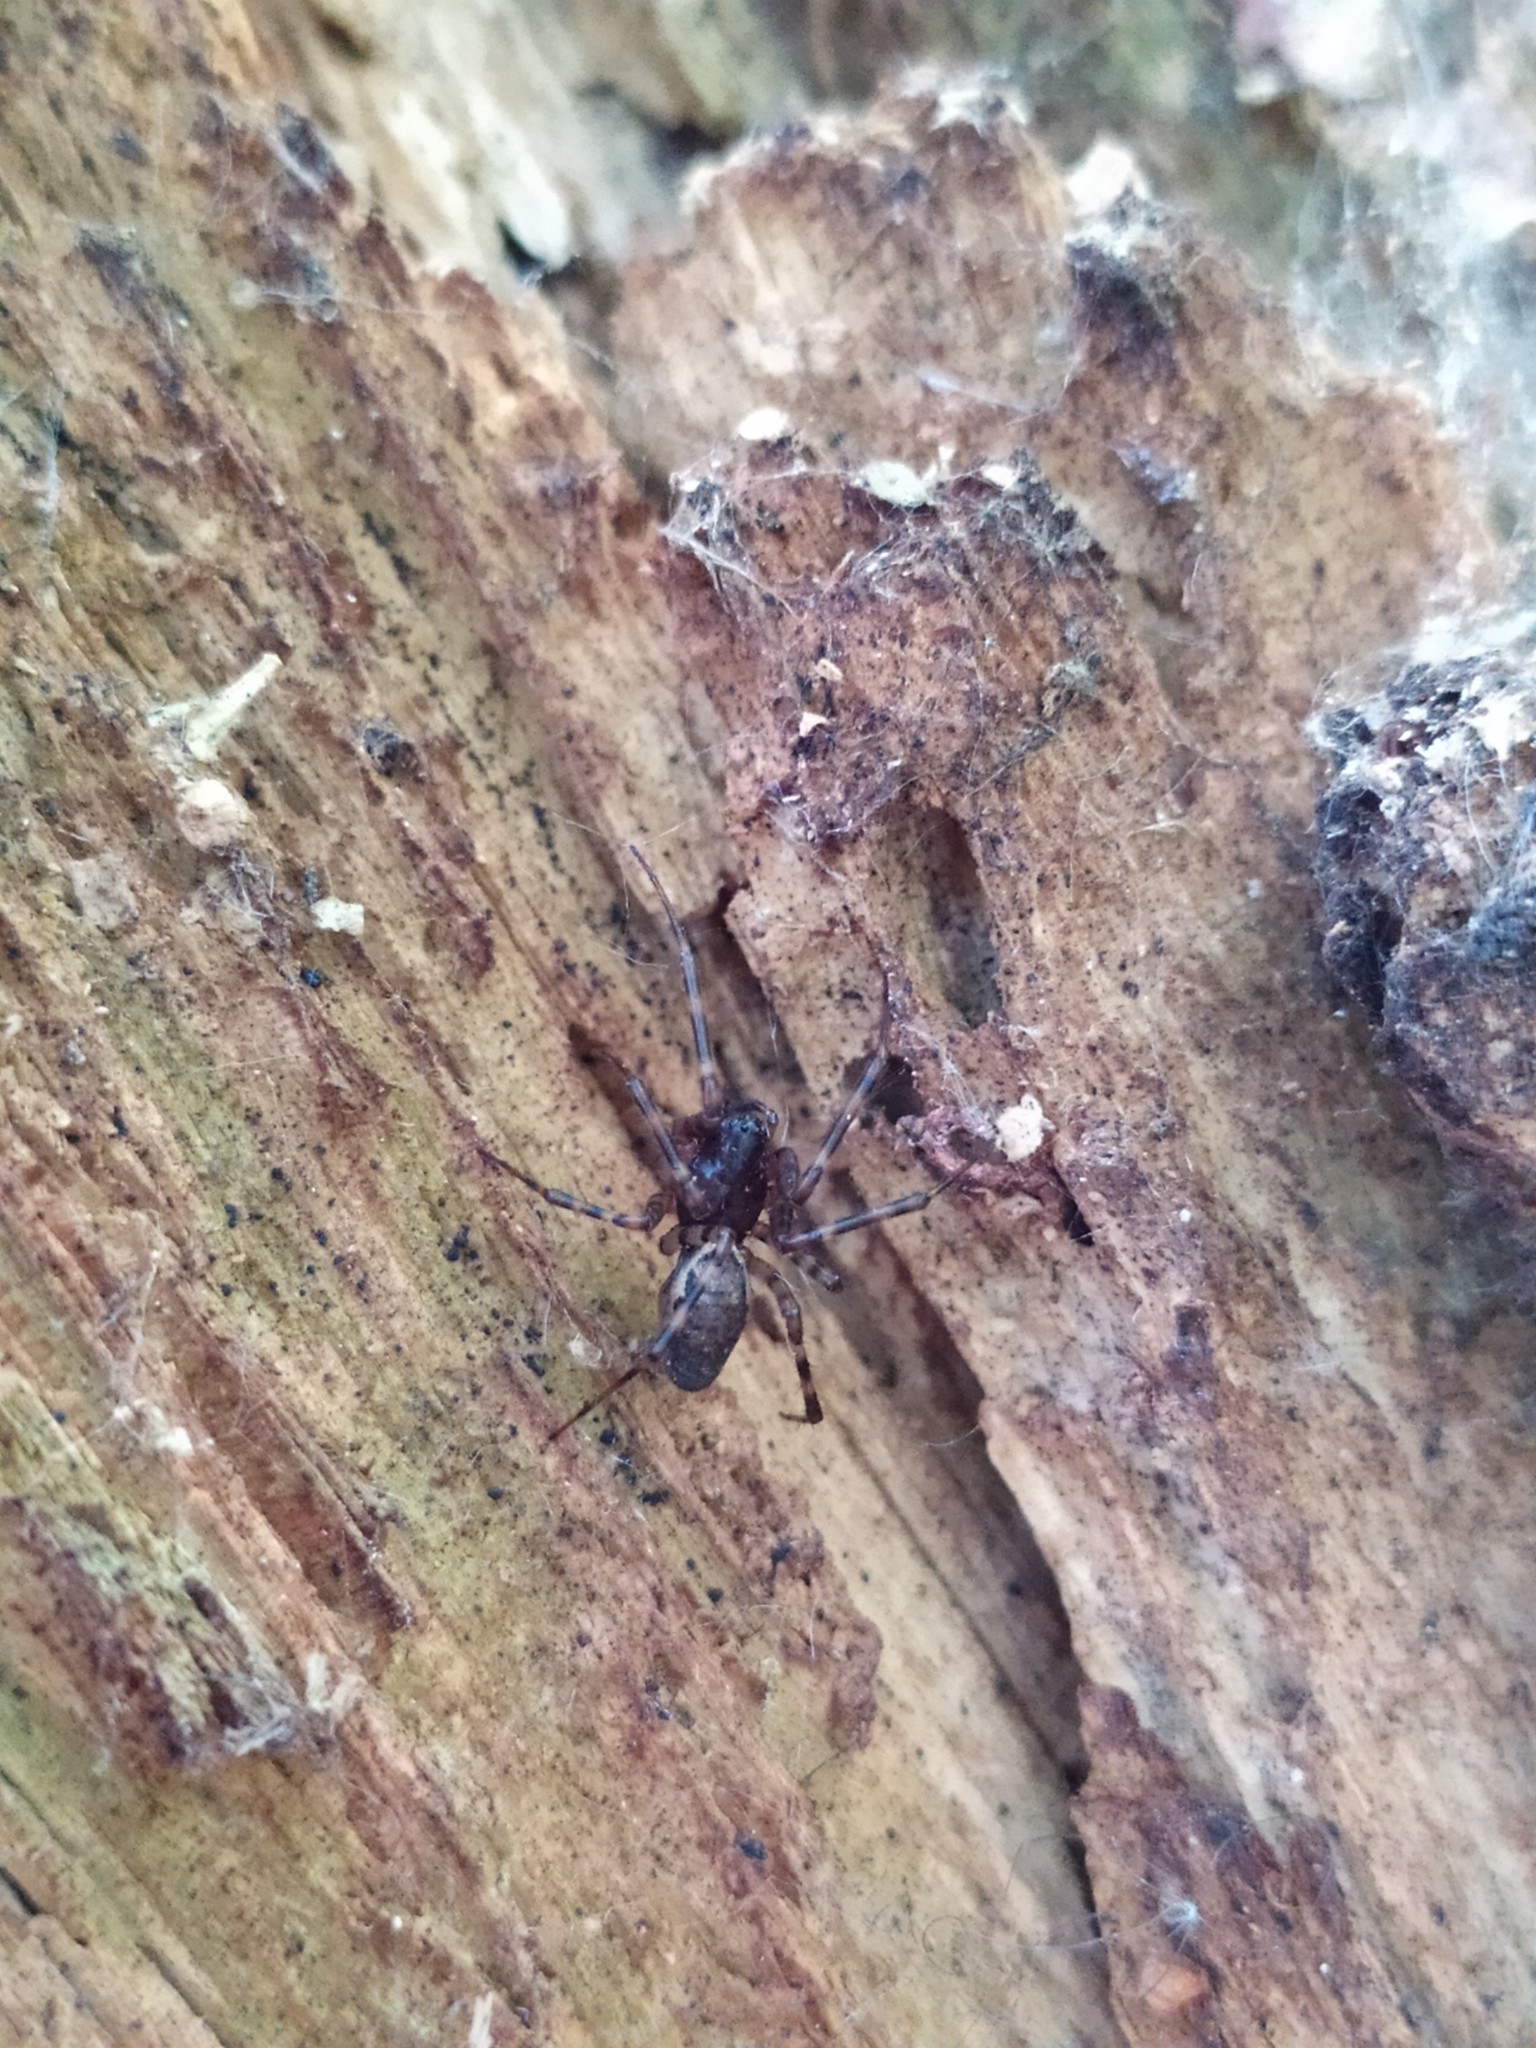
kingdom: Animalia
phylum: Arthropoda
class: Arachnida
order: Araneae
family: Linyphiidae
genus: Neriene
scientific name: Neriene montana
